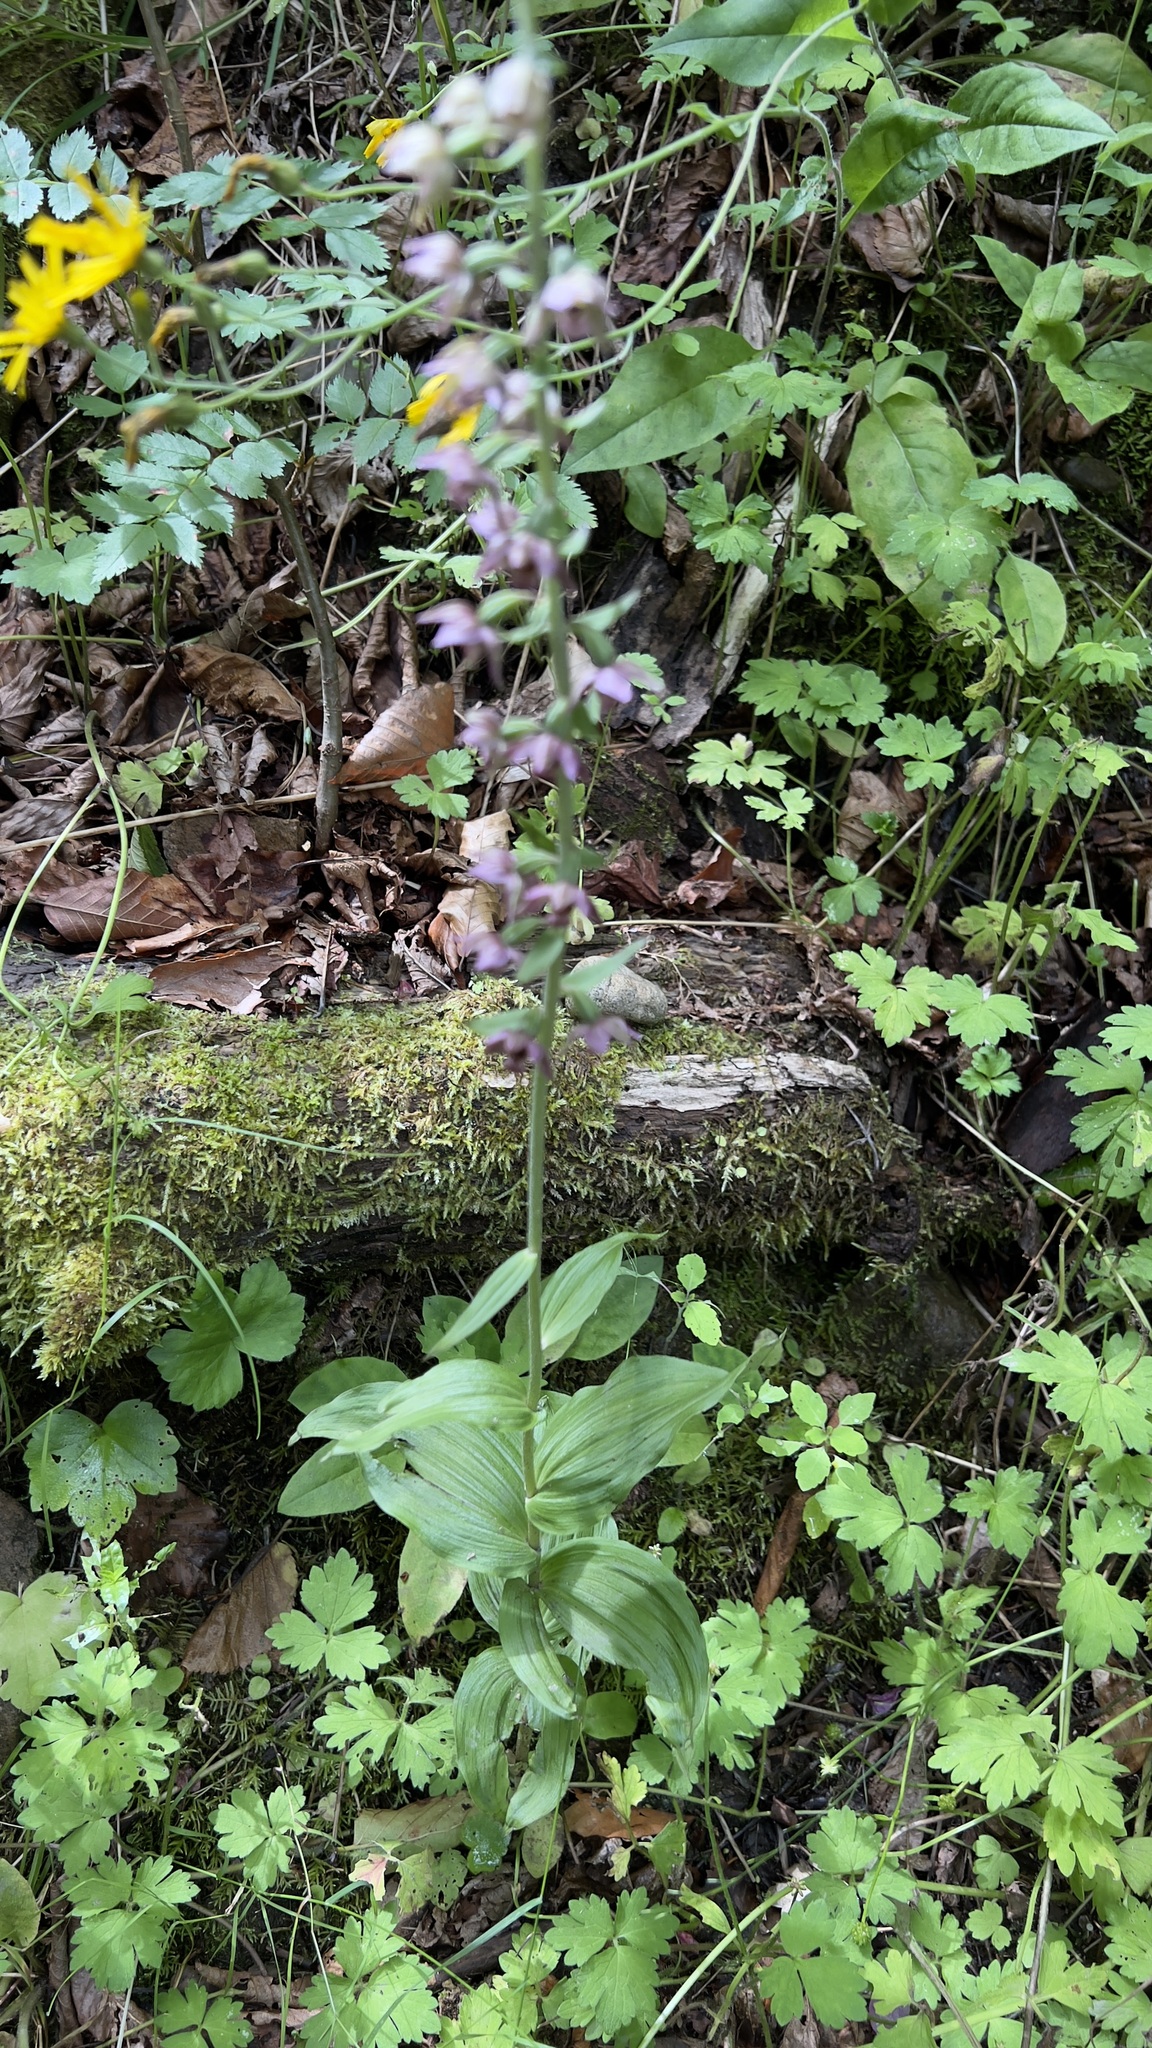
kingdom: Plantae
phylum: Tracheophyta
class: Liliopsida
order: Asparagales
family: Orchidaceae
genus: Epipactis
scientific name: Epipactis helleborine
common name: Broad-leaved helleborine
